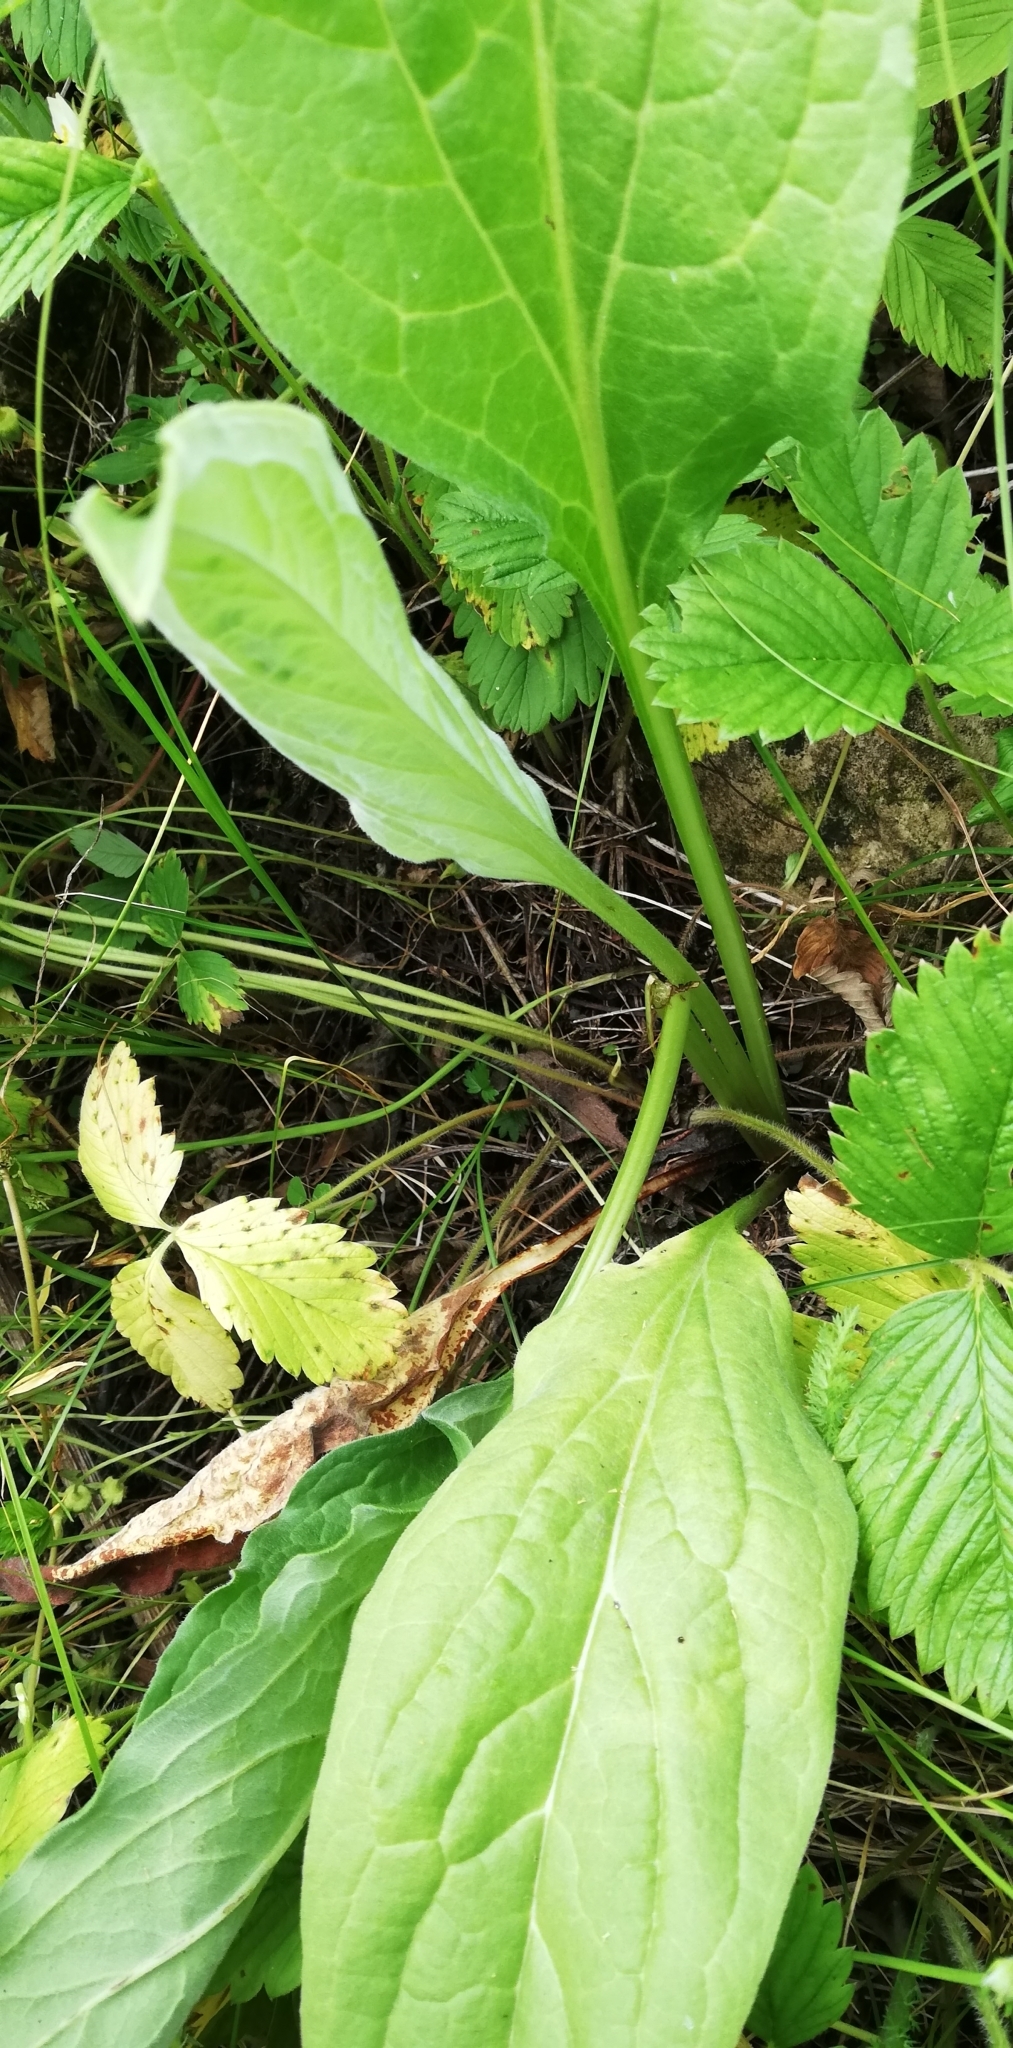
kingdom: Plantae
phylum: Tracheophyta
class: Magnoliopsida
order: Boraginales
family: Boraginaceae
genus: Cynoglossum
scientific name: Cynoglossum officinale
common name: Hound's-tongue
